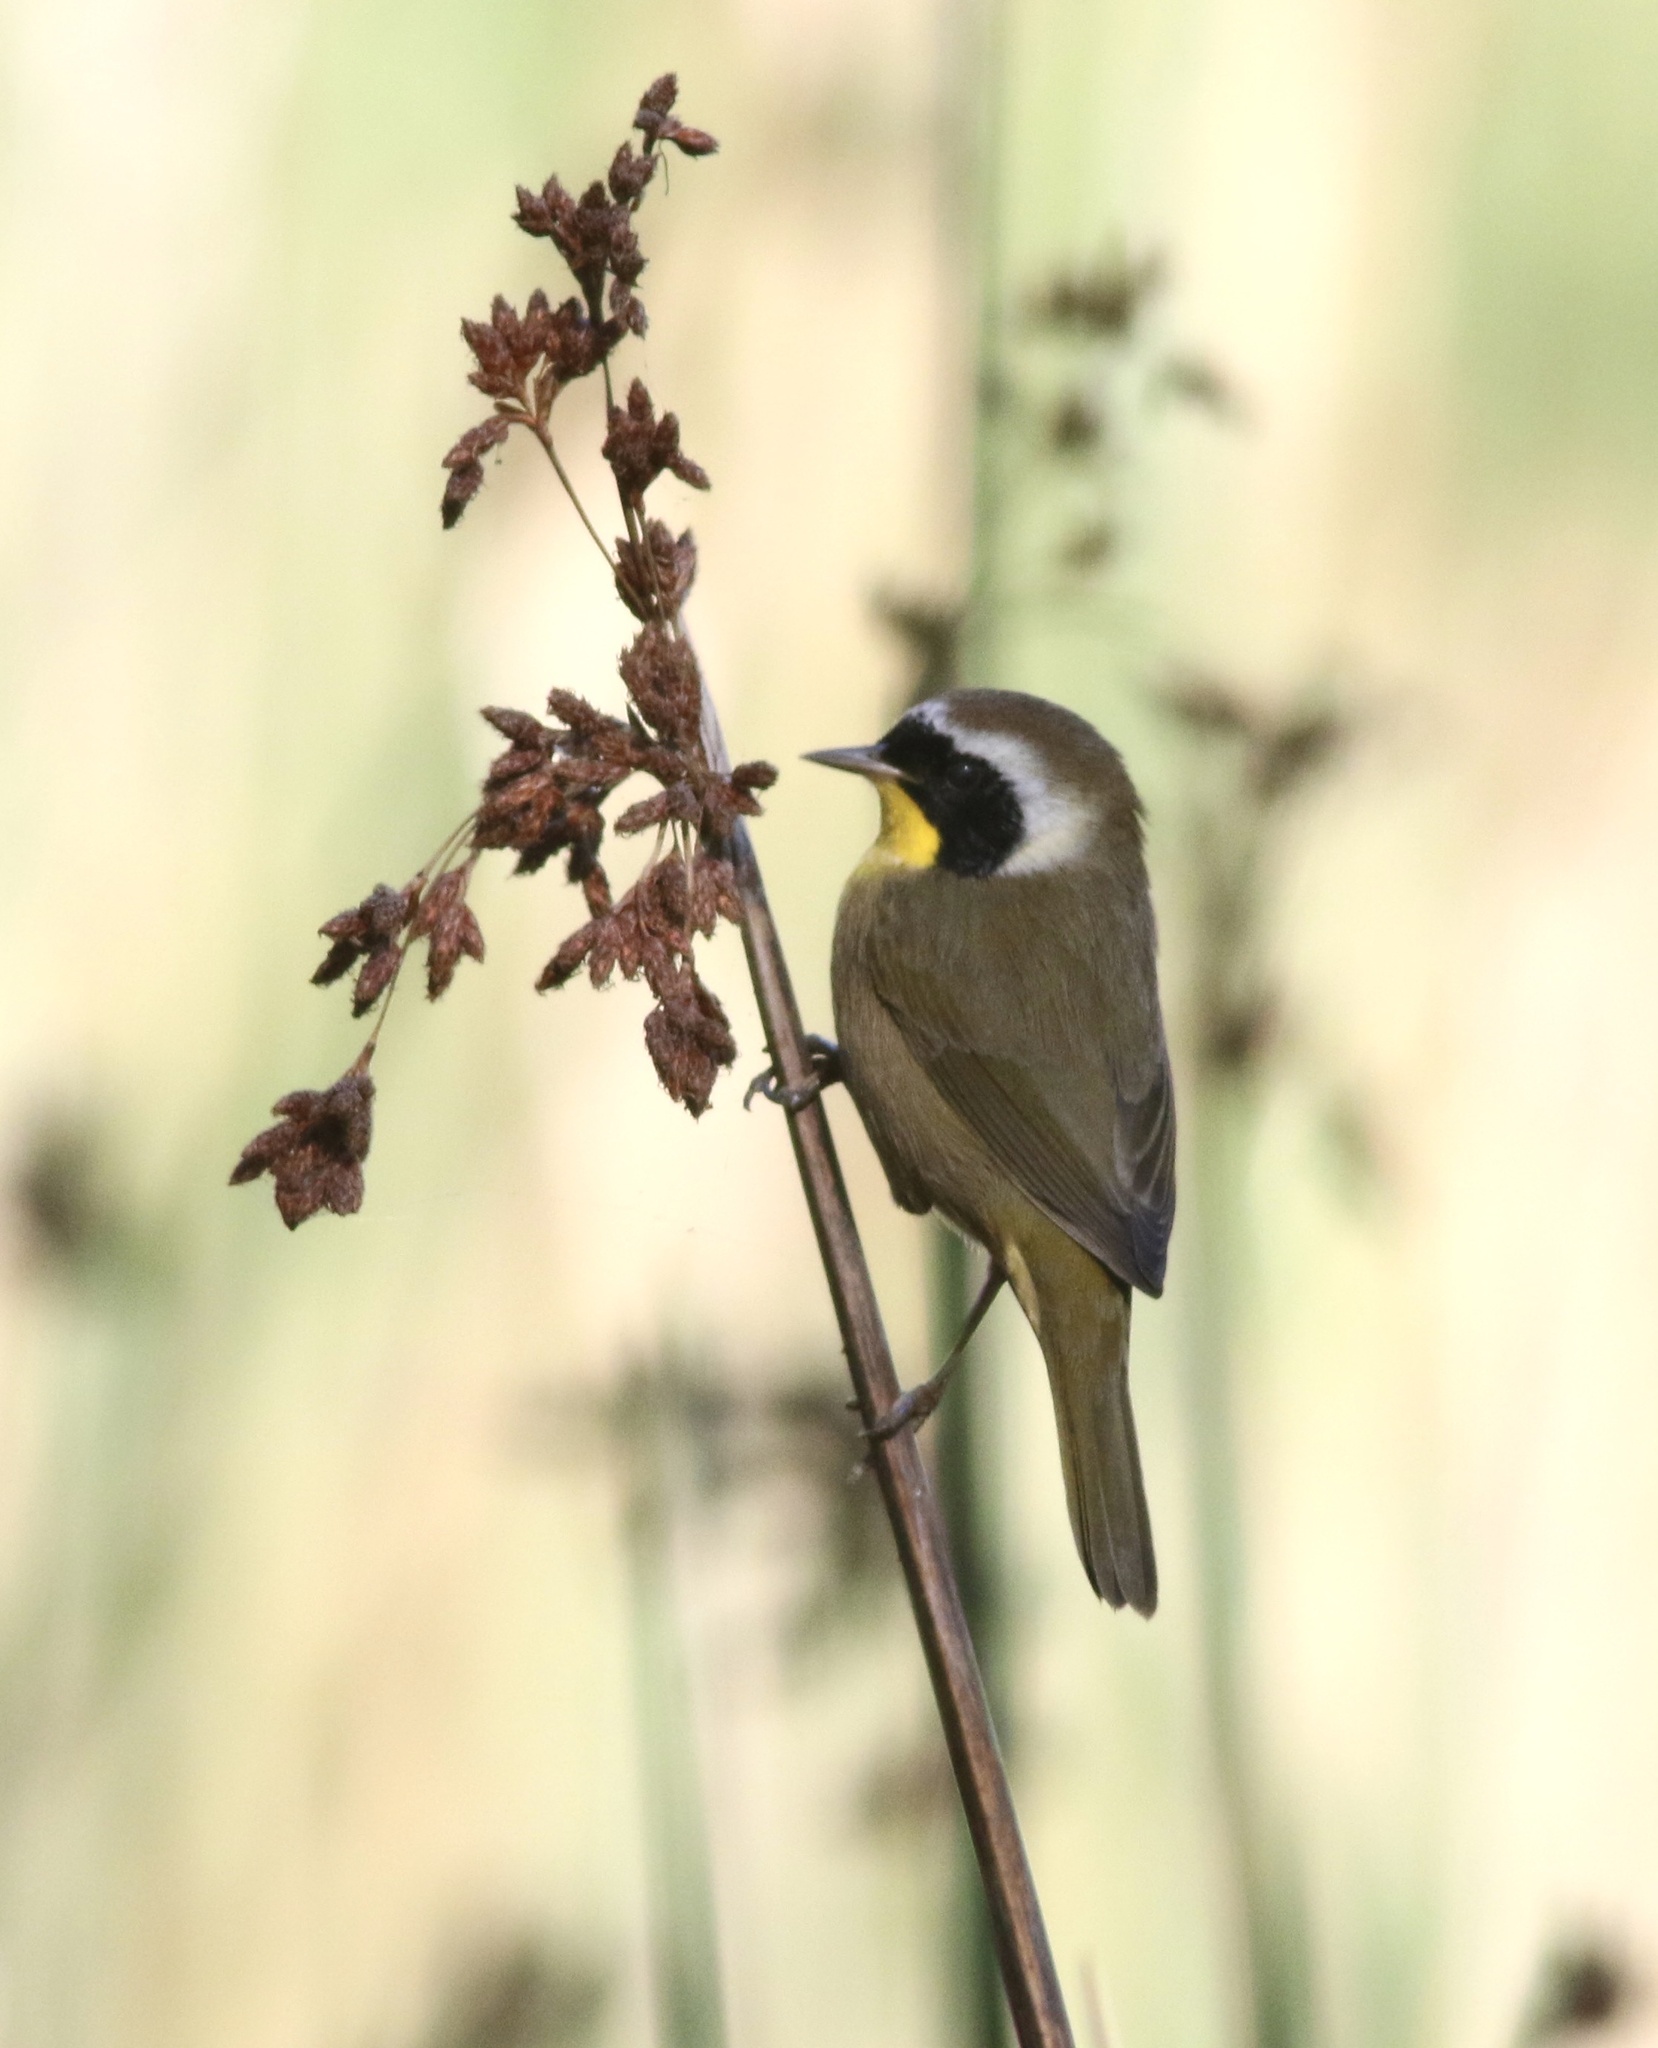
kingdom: Animalia
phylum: Chordata
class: Aves
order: Passeriformes
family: Parulidae
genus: Geothlypis
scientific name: Geothlypis trichas
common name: Common yellowthroat
